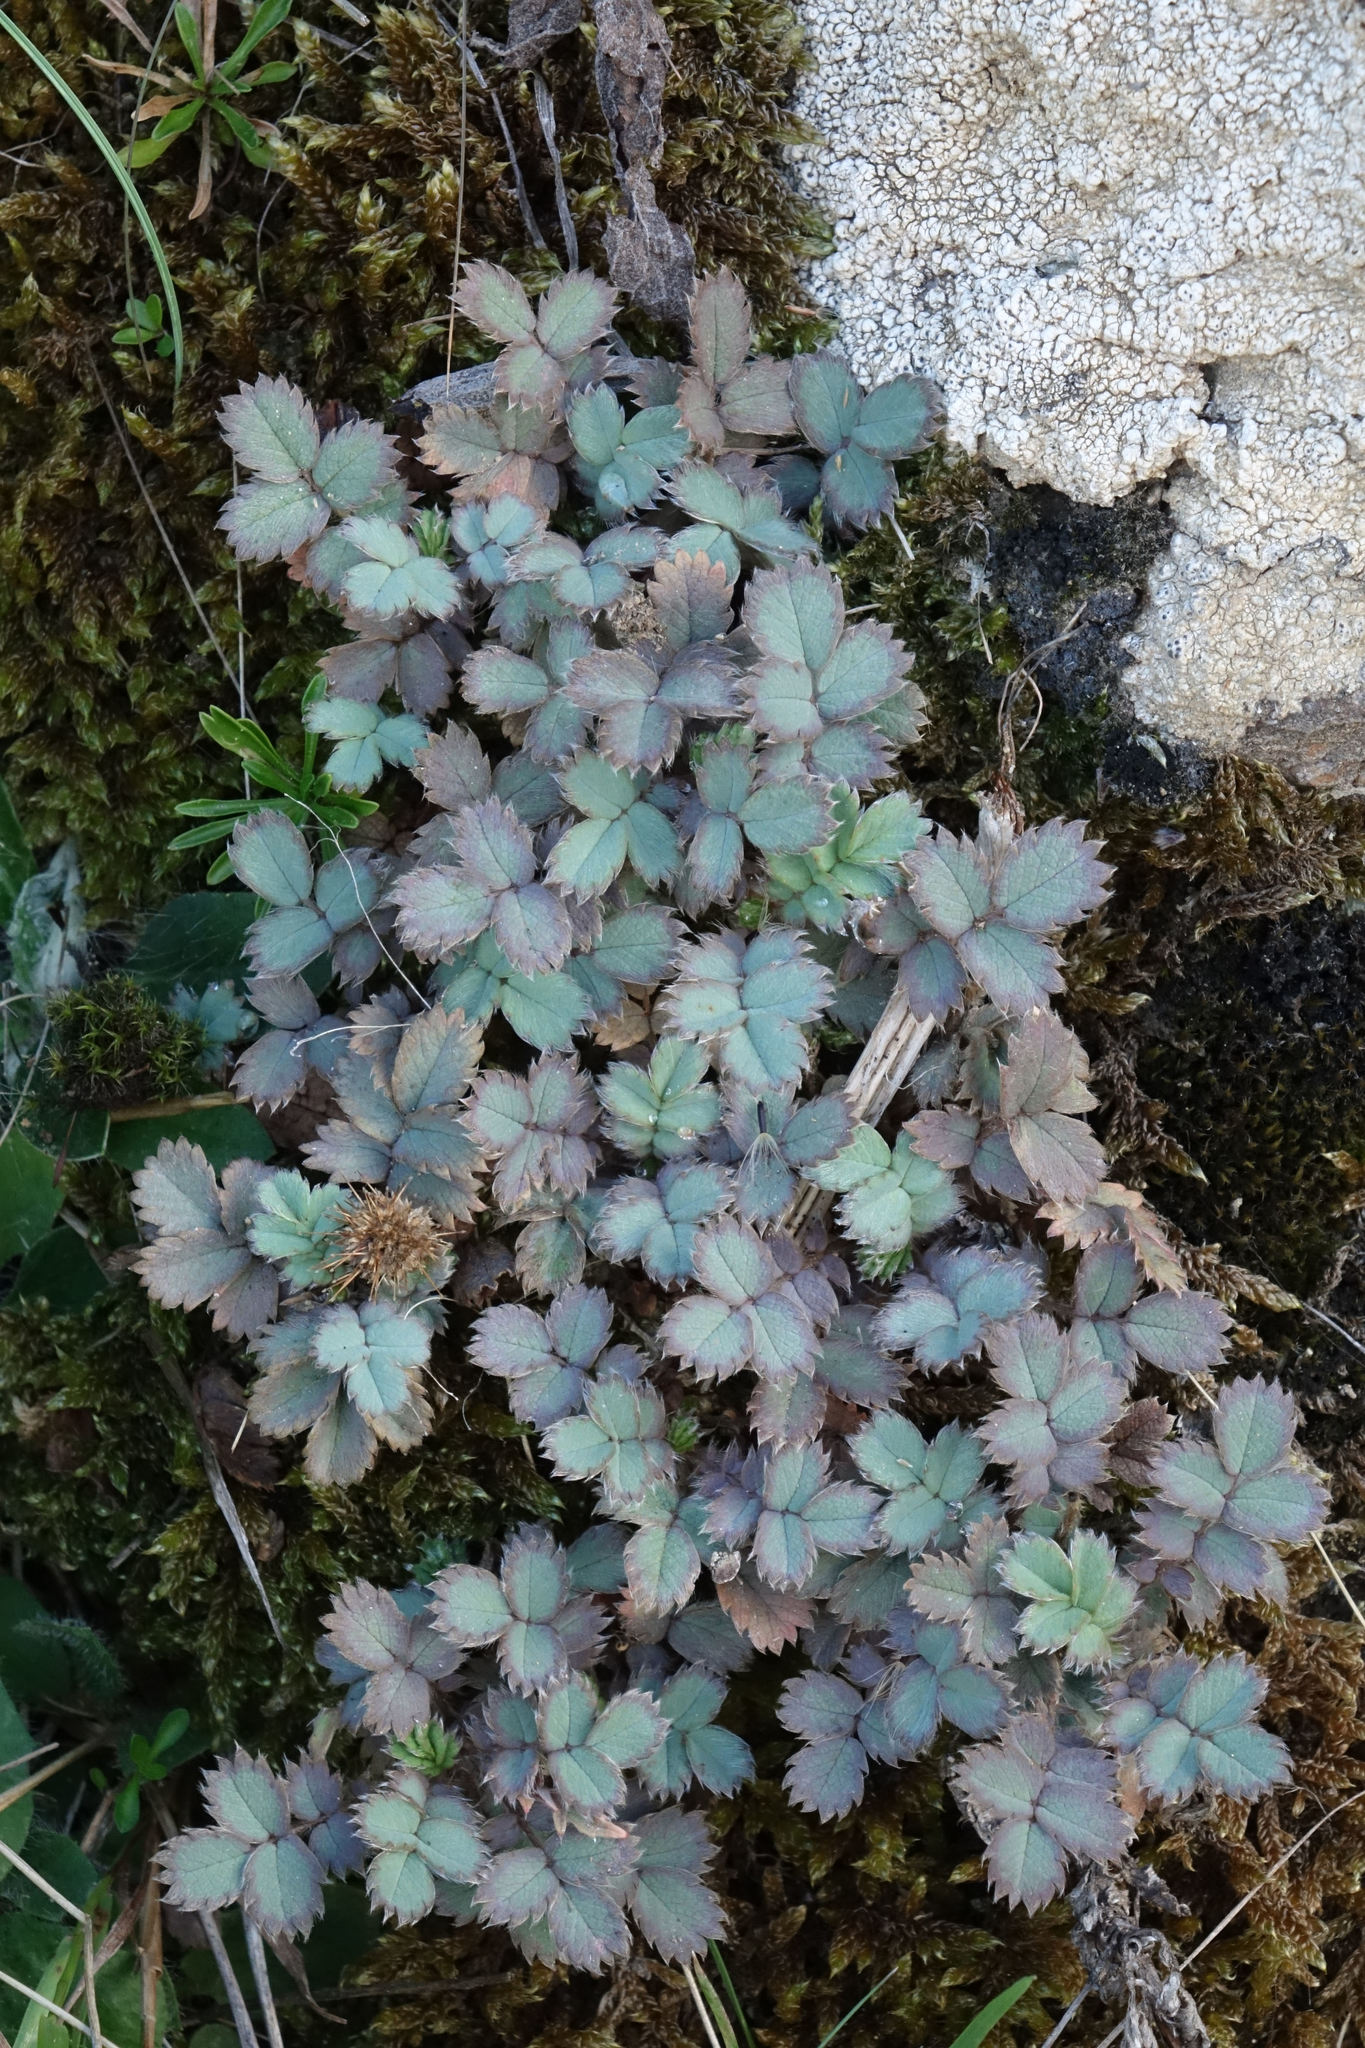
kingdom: Plantae
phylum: Tracheophyta
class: Magnoliopsida
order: Rosales
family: Rosaceae
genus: Acaena
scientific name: Acaena caesiiglauca
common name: Glaucous pirri-pirri-bur
